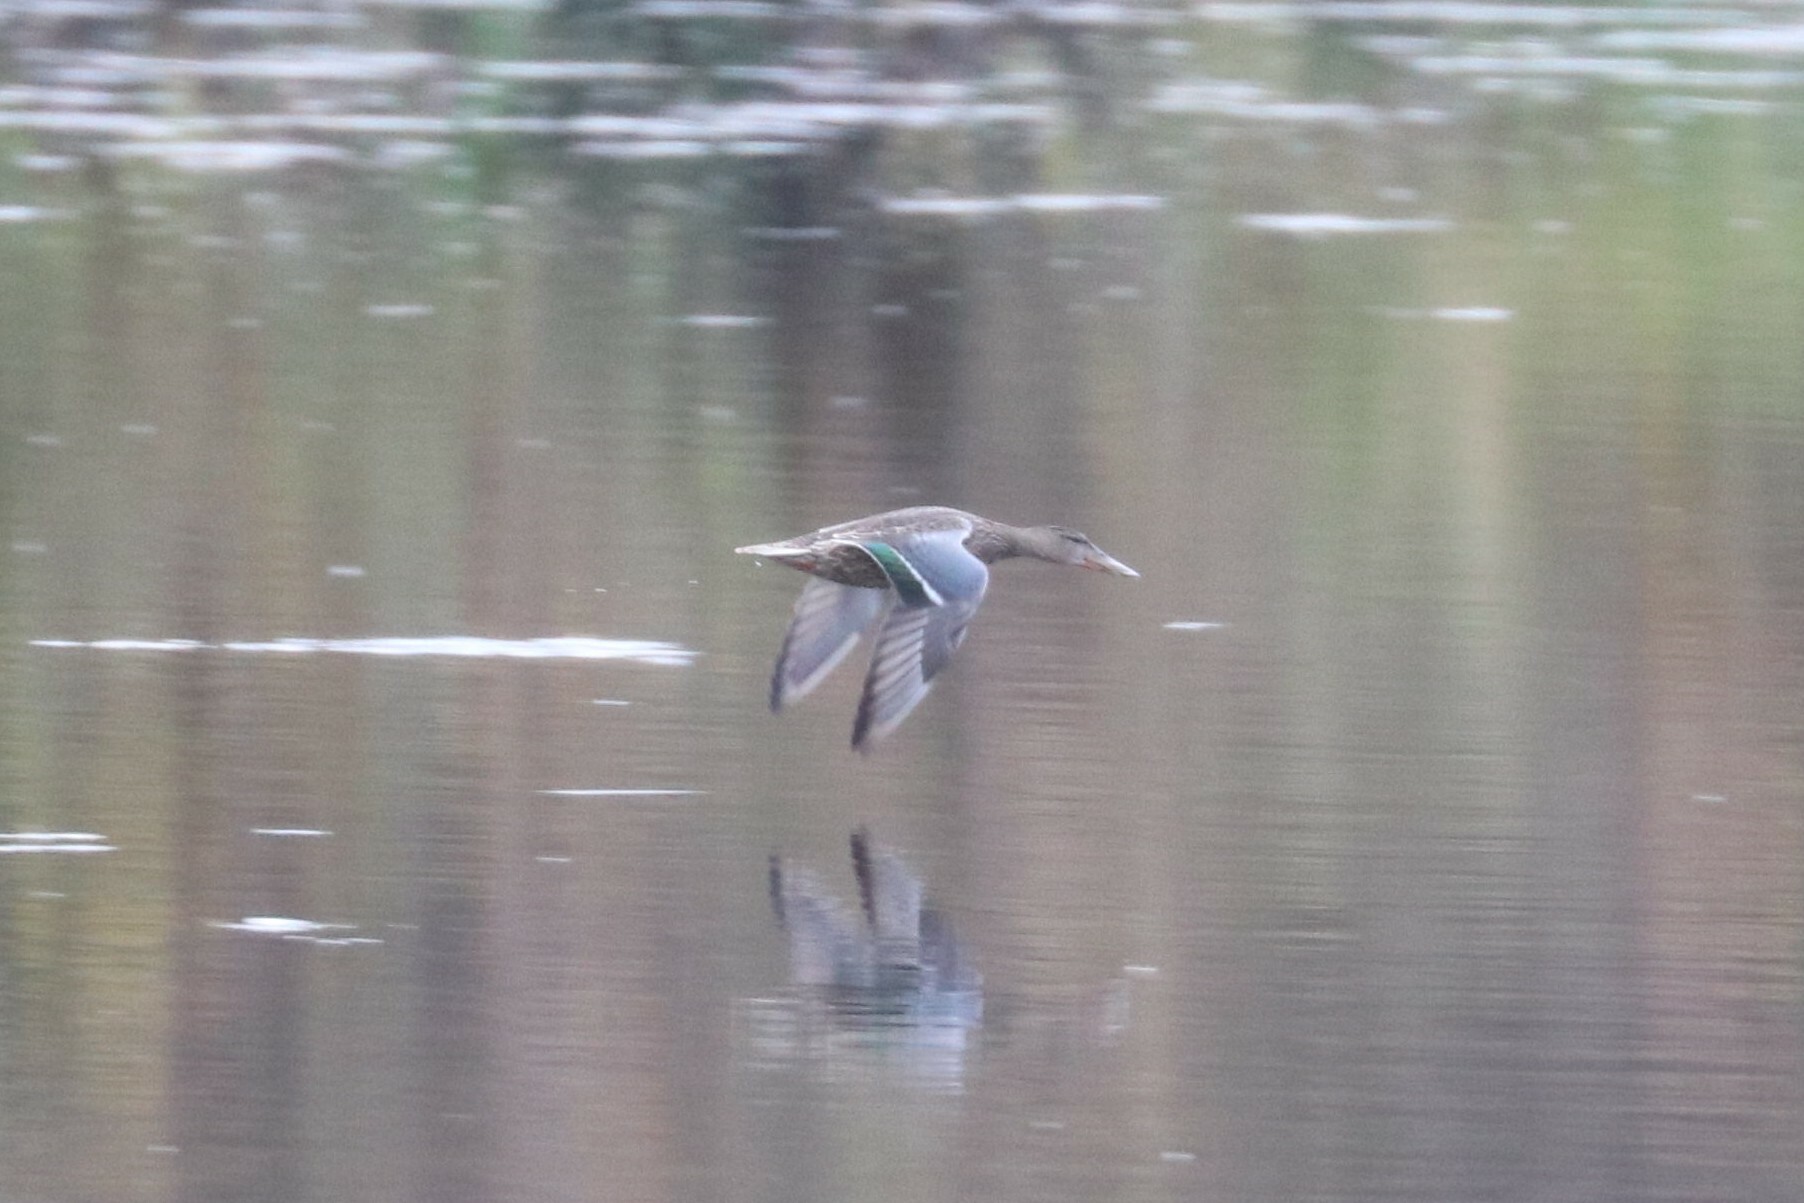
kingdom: Animalia
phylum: Chordata
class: Aves
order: Anseriformes
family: Anatidae
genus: Spatula
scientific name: Spatula clypeata
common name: Northern shoveler
